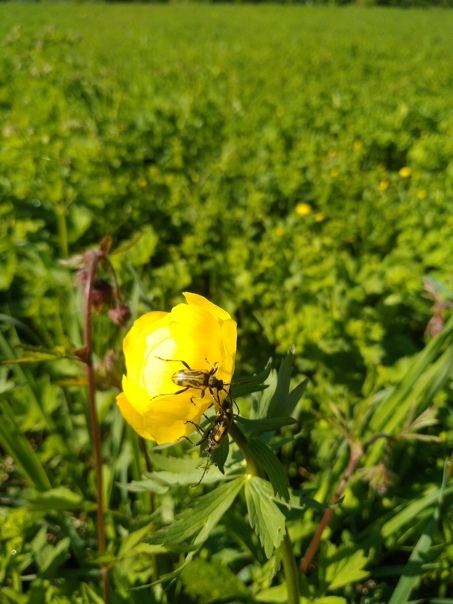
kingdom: Animalia
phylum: Arthropoda
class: Insecta
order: Coleoptera
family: Cerambycidae
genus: Brachyta
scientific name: Brachyta interrogationis
